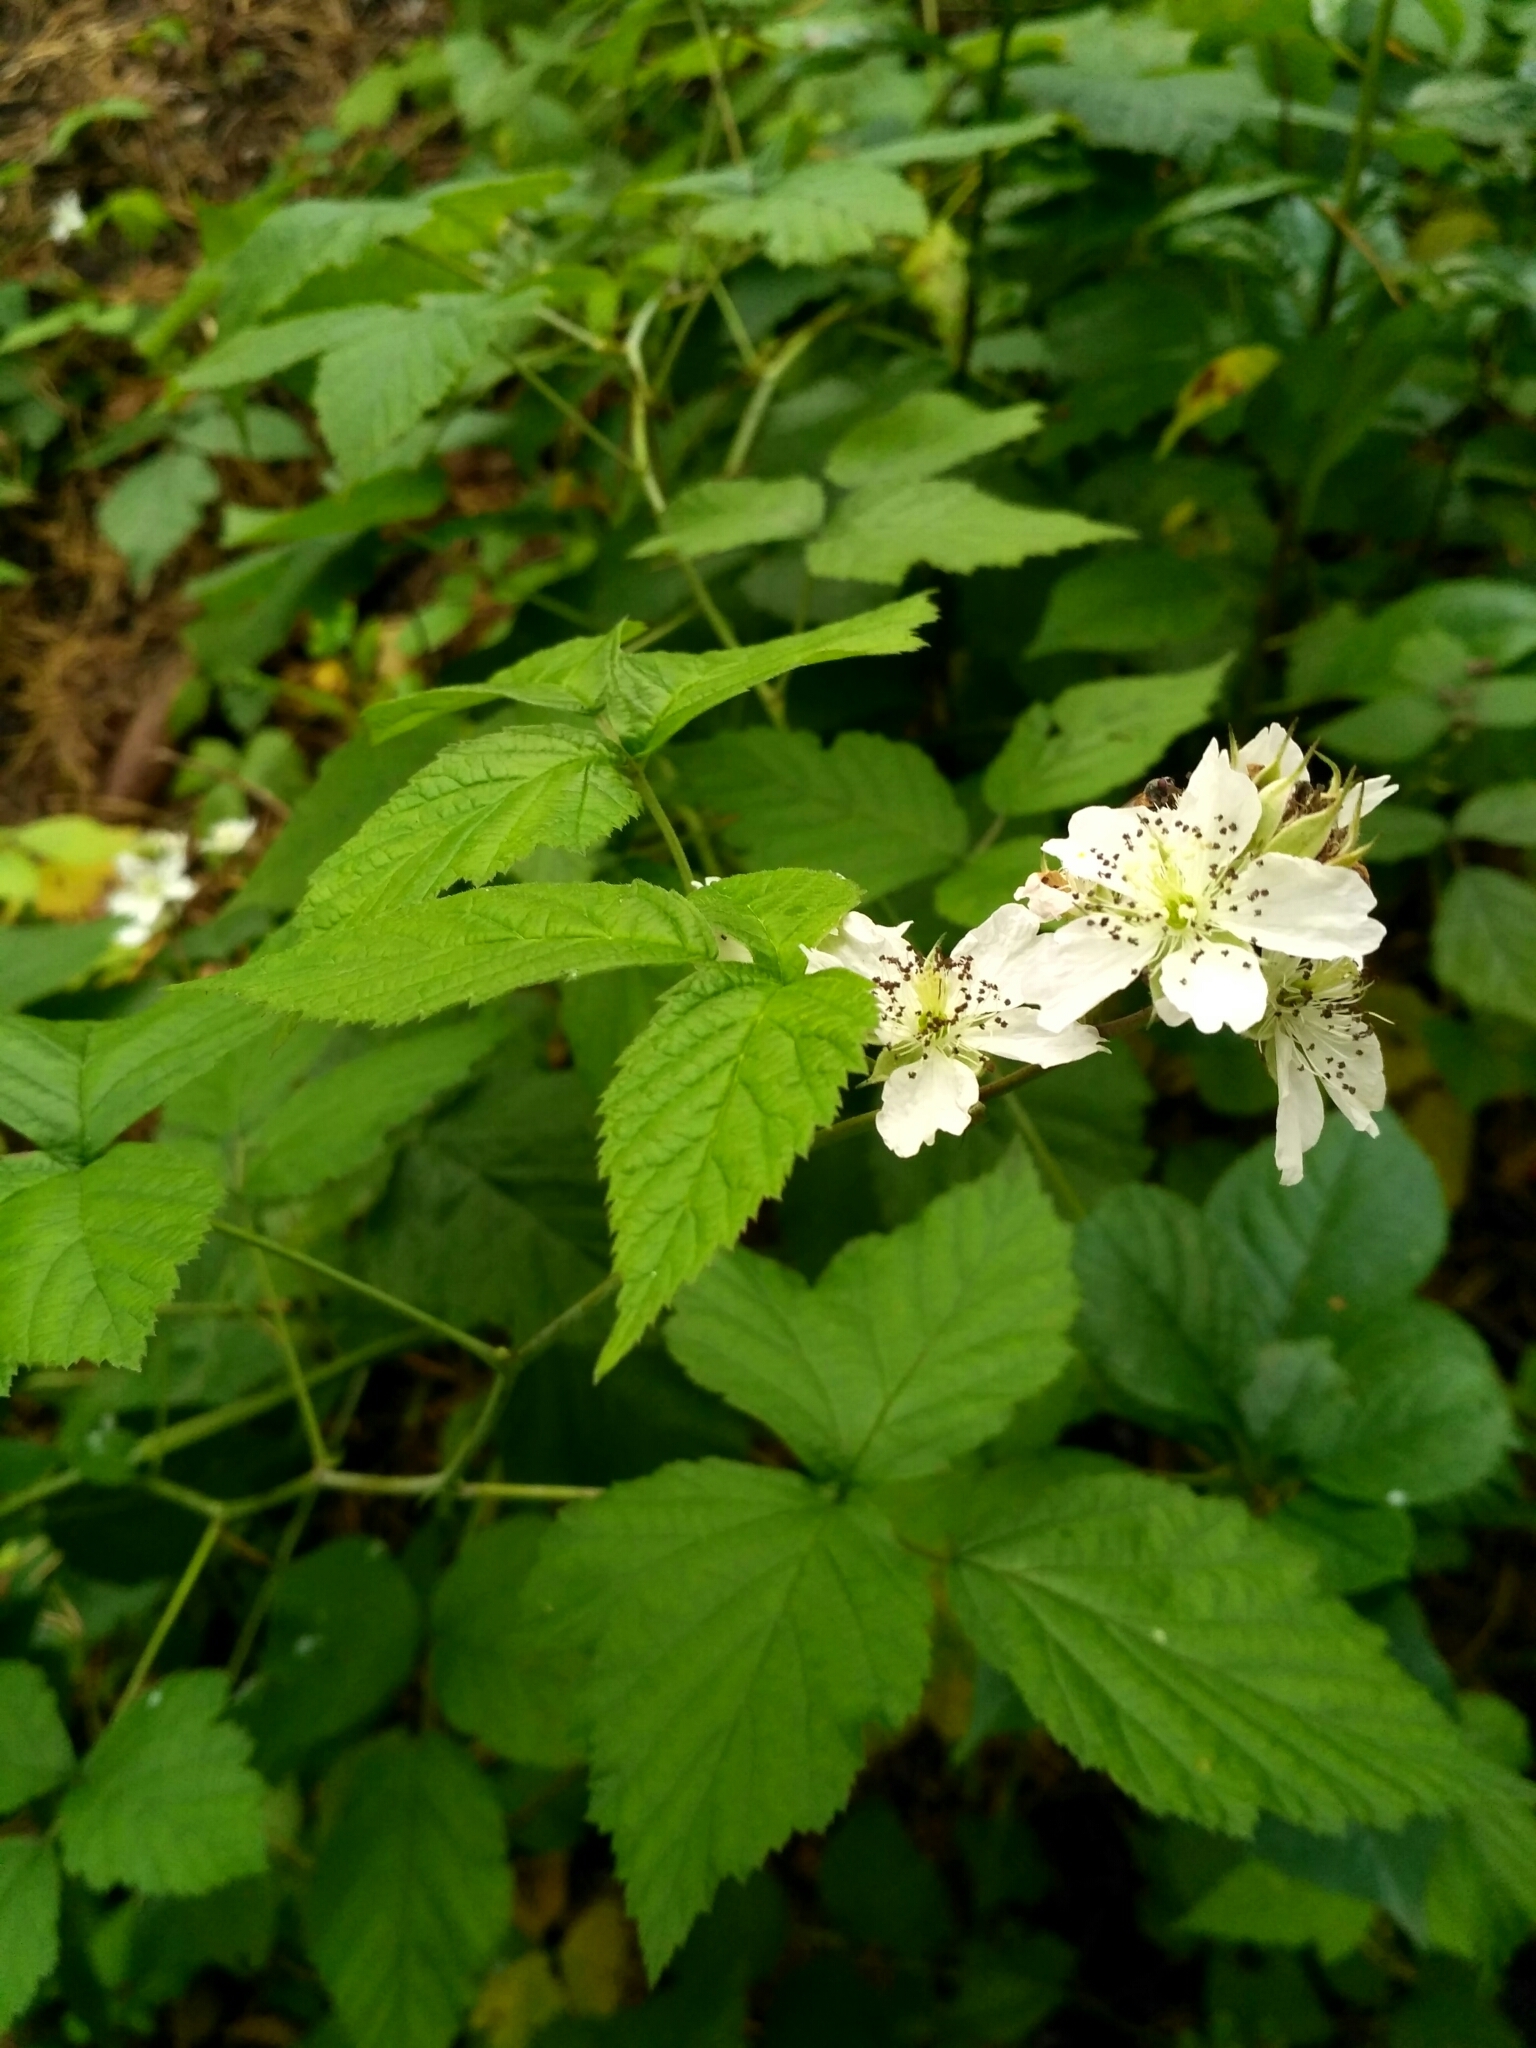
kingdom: Plantae
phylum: Tracheophyta
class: Magnoliopsida
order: Rosales
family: Rosaceae
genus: Rubus
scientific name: Rubus caesius
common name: Dewberry
